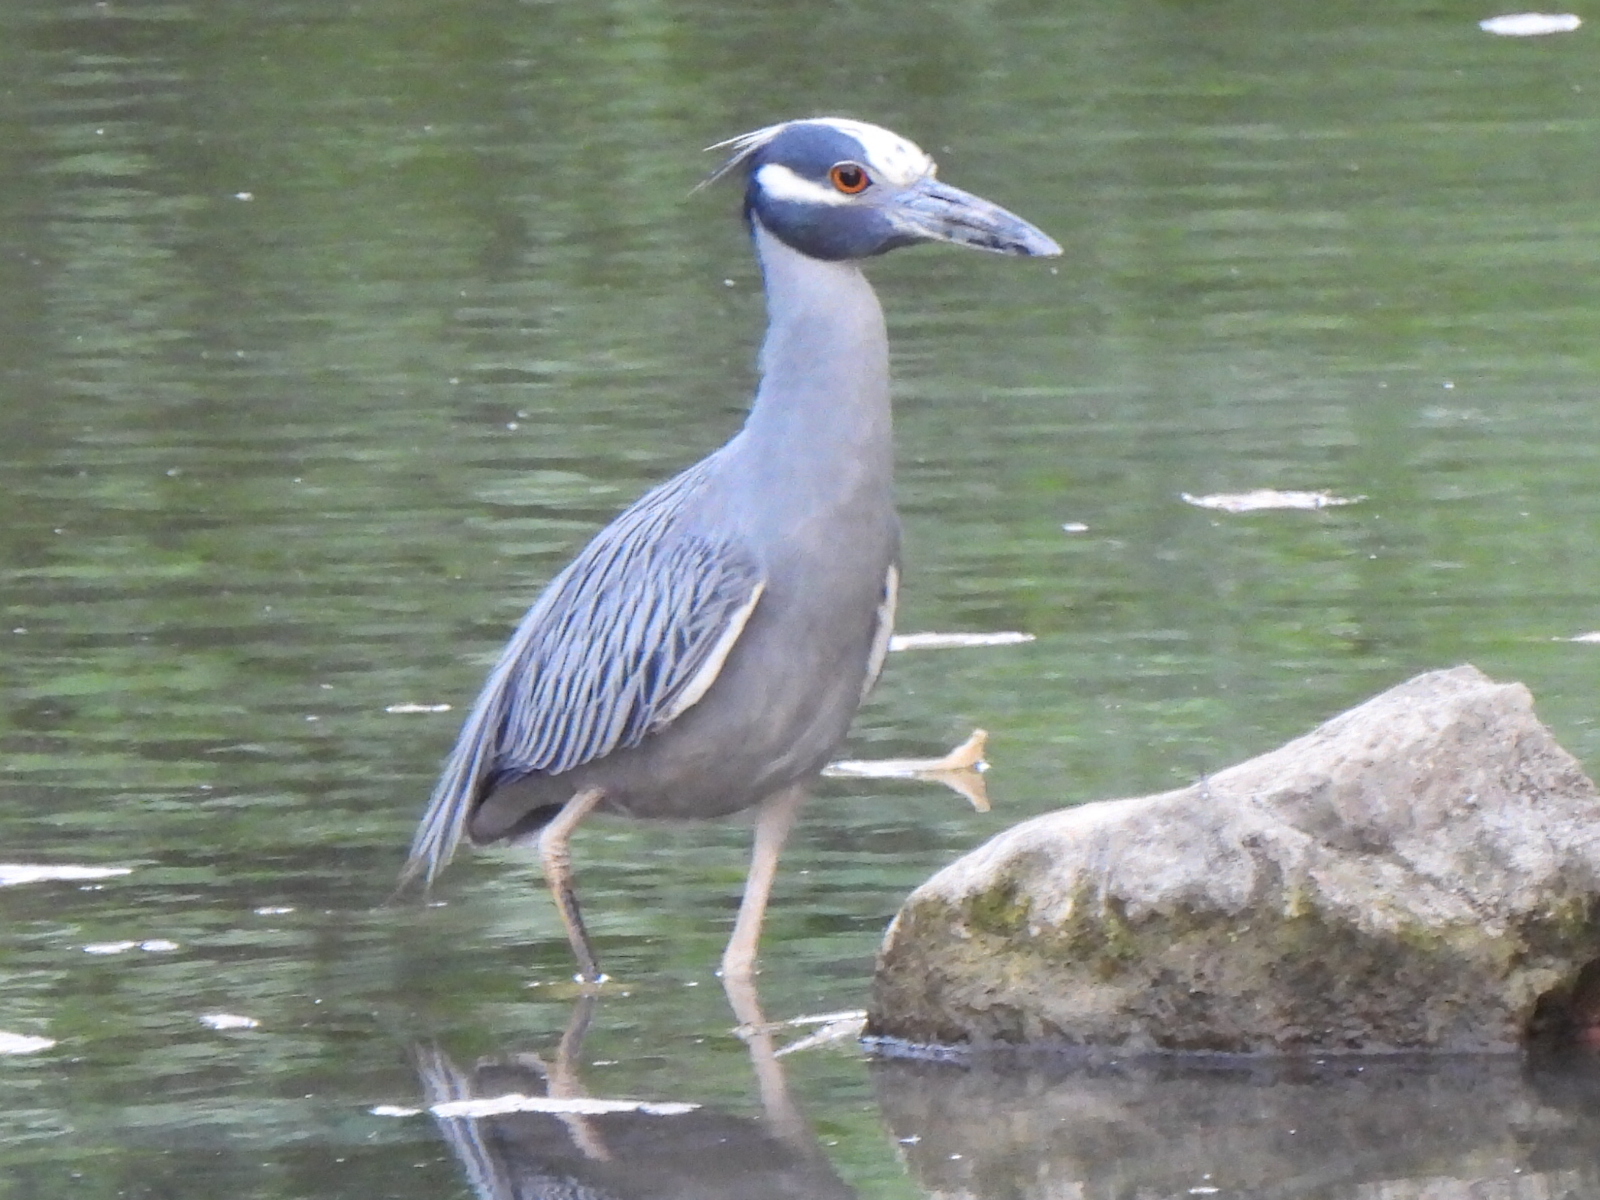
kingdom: Animalia
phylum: Chordata
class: Aves
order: Pelecaniformes
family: Ardeidae
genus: Nyctanassa
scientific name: Nyctanassa violacea
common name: Yellow-crowned night heron
